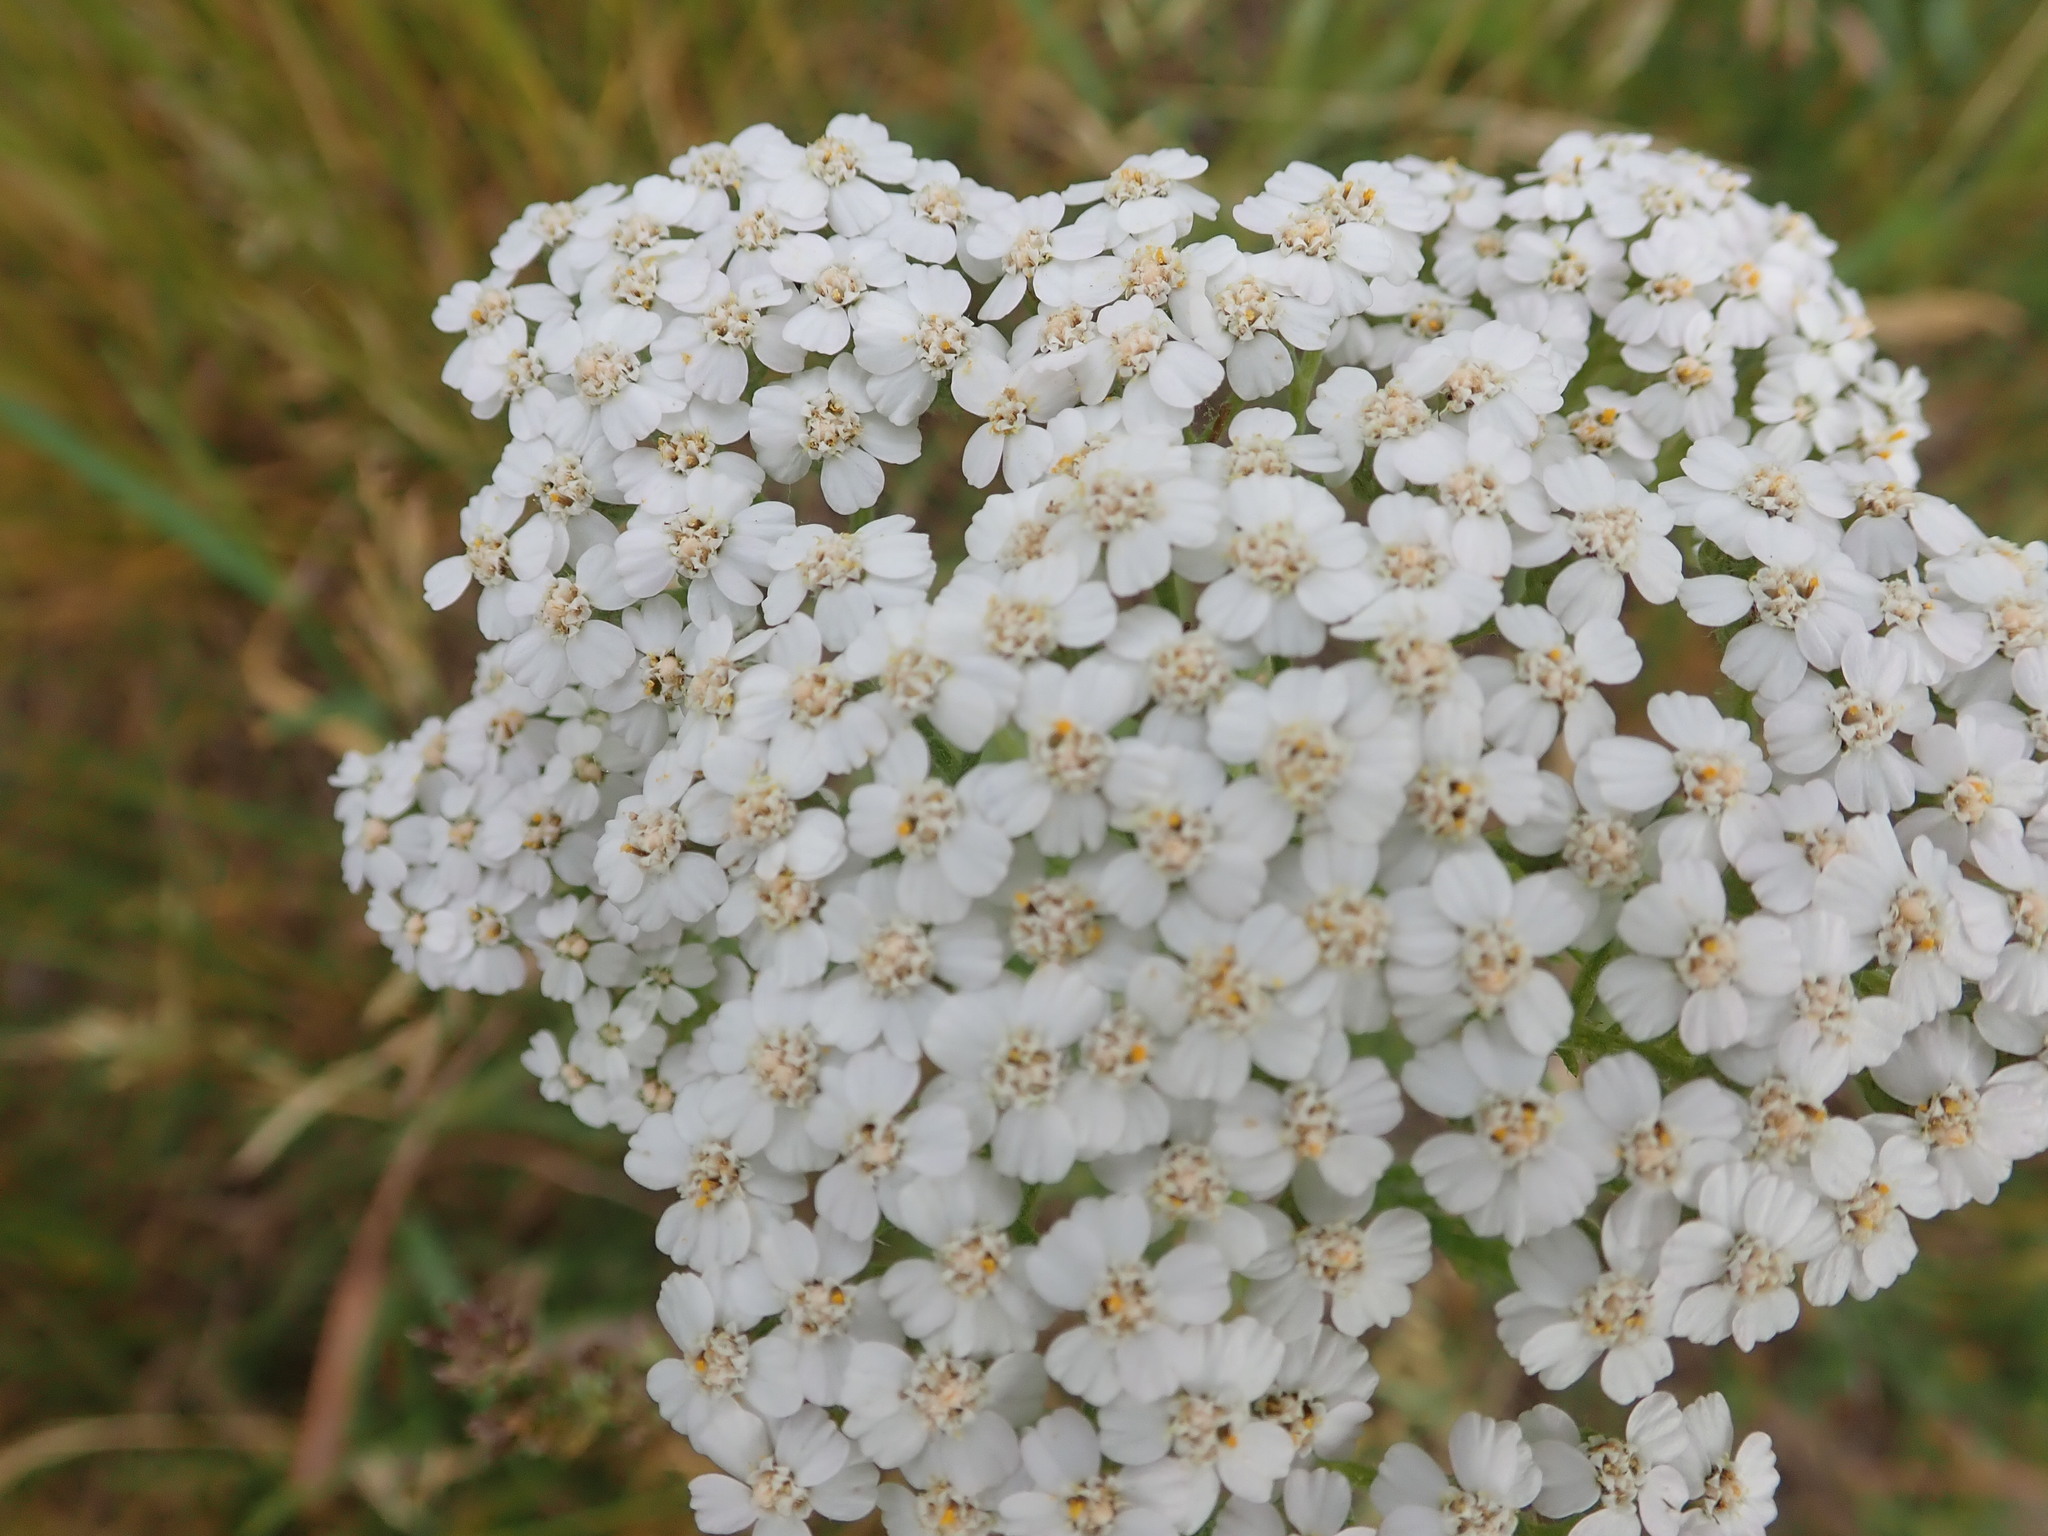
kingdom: Plantae
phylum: Tracheophyta
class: Magnoliopsida
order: Asterales
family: Asteraceae
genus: Achillea
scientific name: Achillea millefolium
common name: Yarrow
